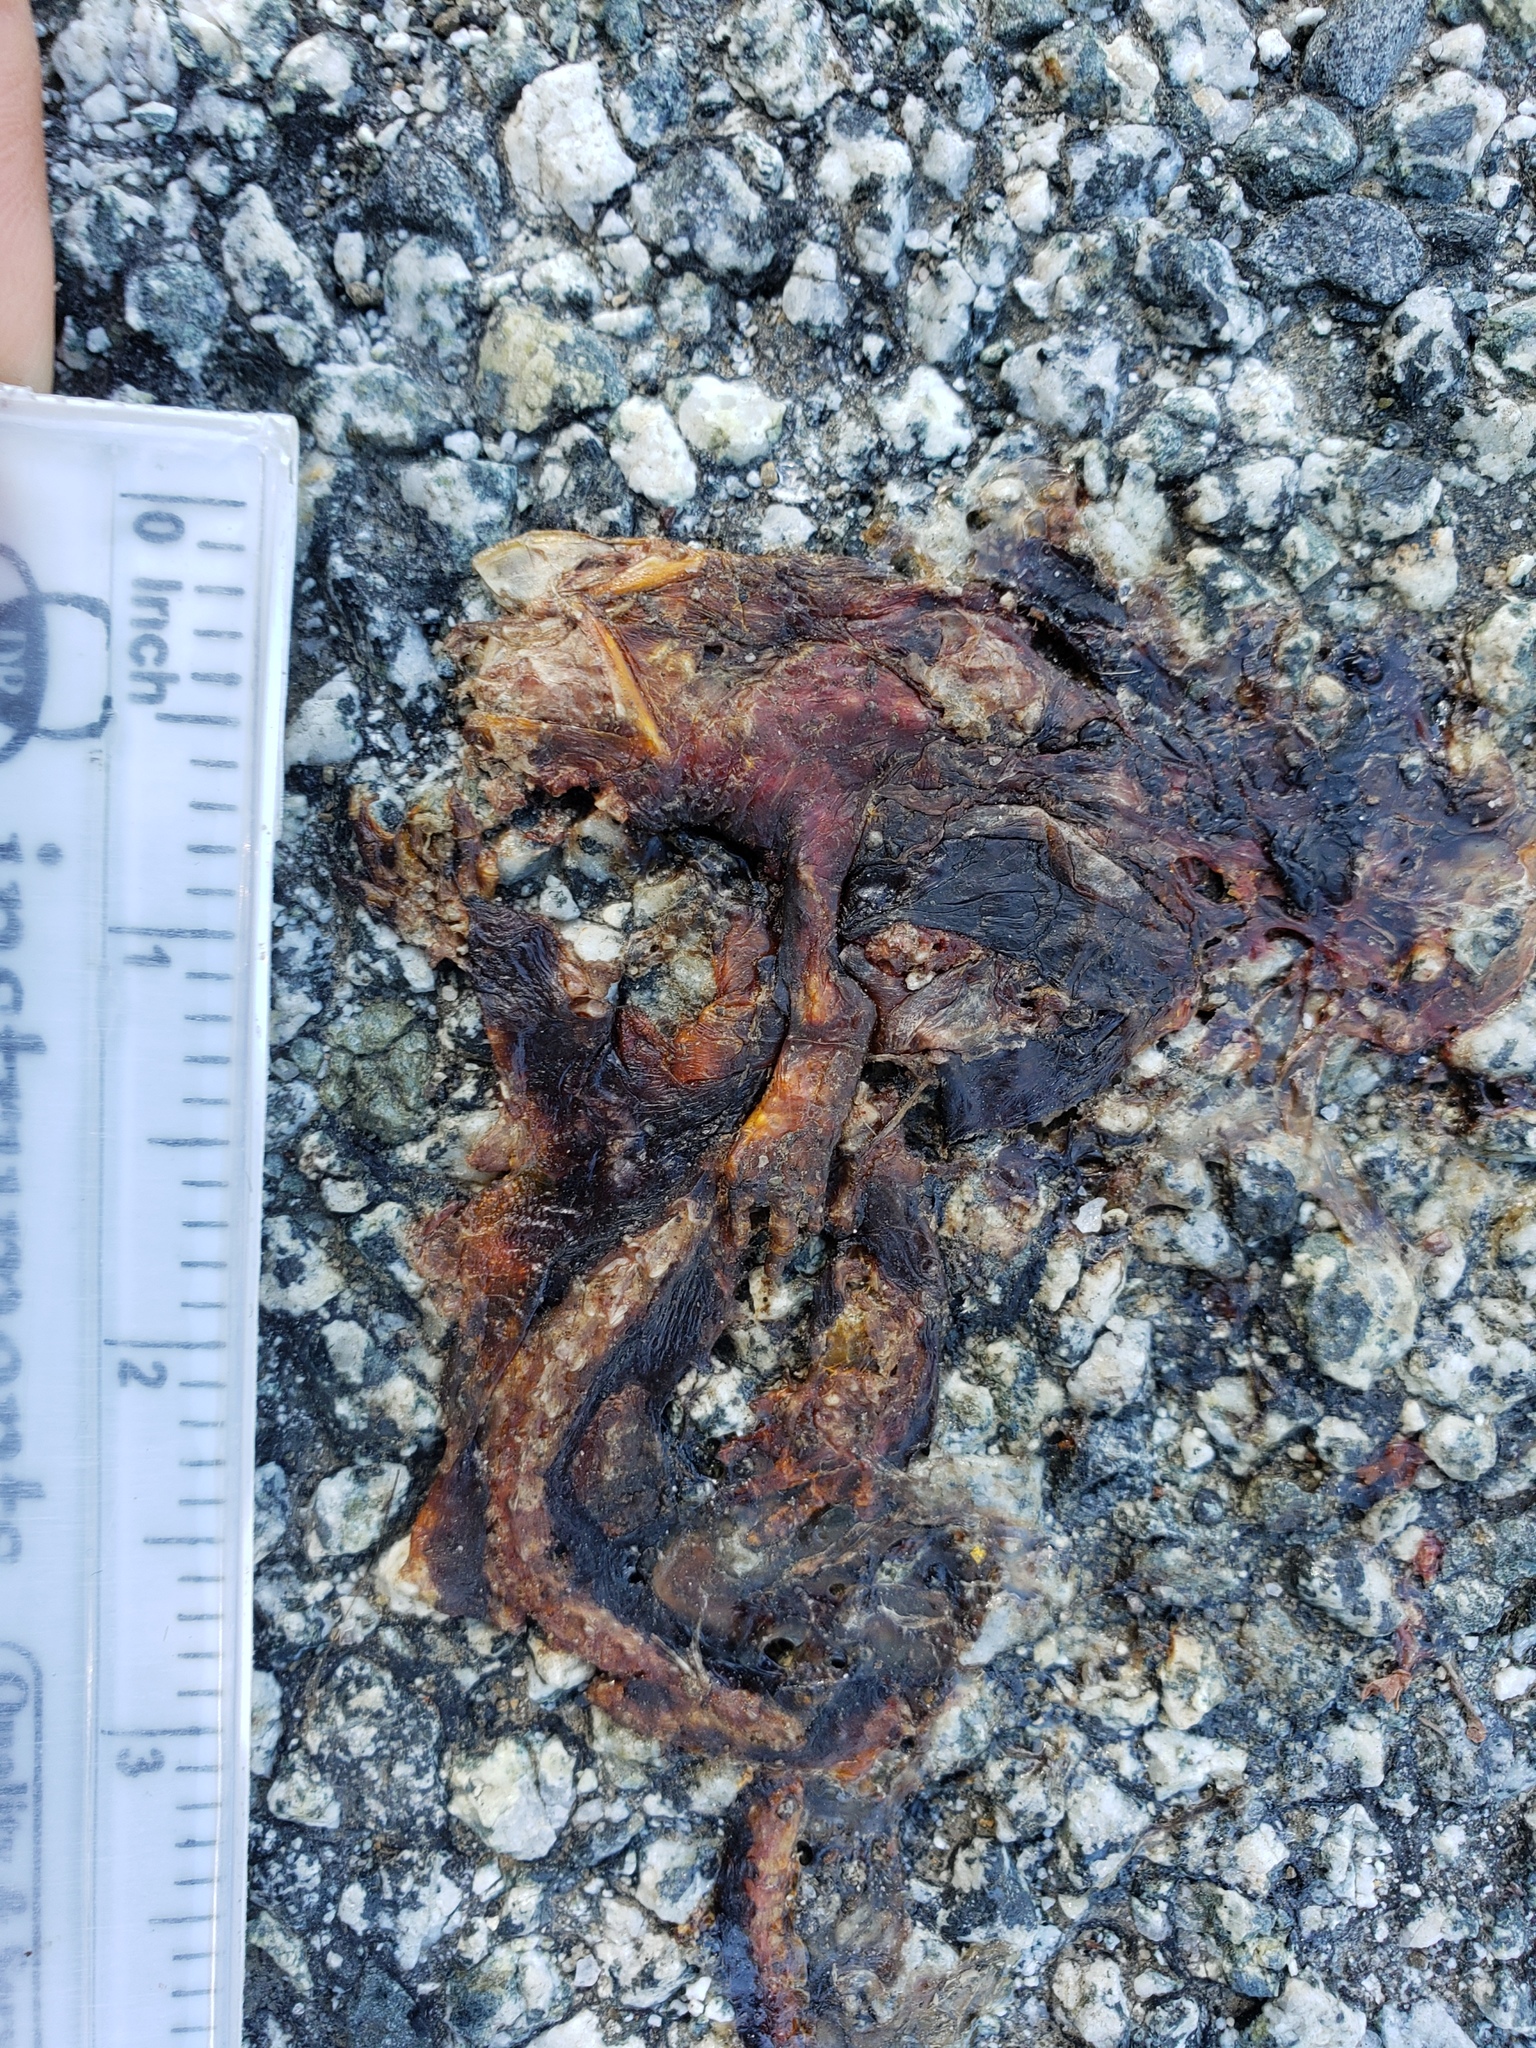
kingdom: Animalia
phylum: Chordata
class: Amphibia
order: Caudata
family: Salamandridae
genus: Taricha
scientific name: Taricha
